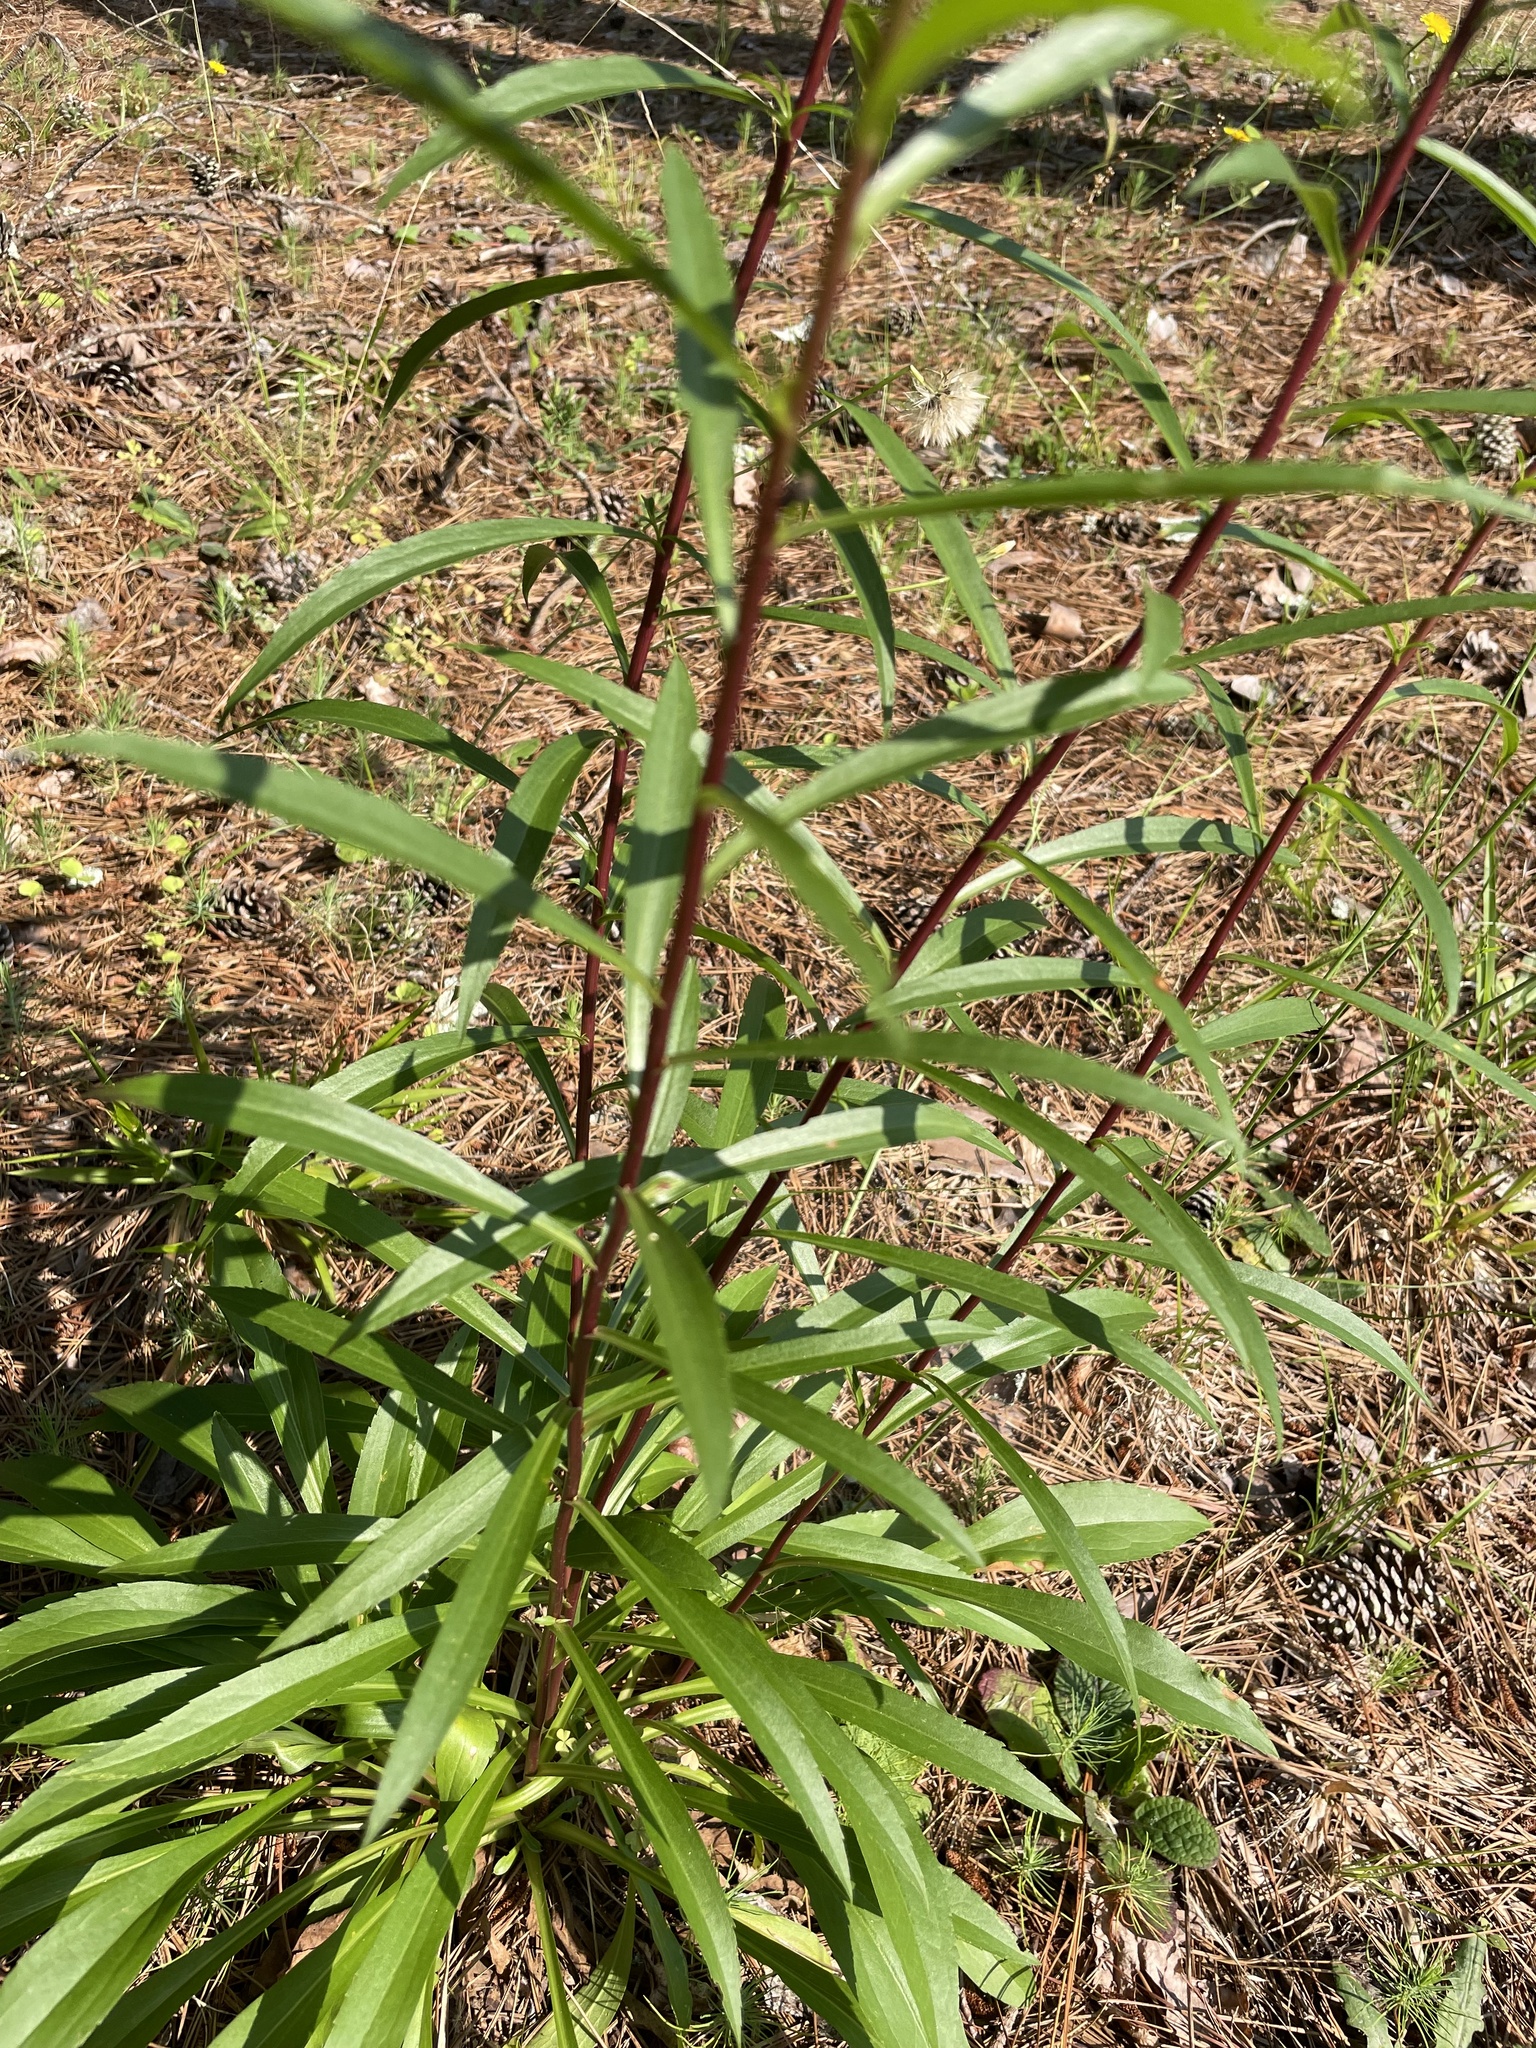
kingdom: Plantae
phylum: Tracheophyta
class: Magnoliopsida
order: Asterales
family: Asteraceae
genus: Solidago
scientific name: Solidago odora
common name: Anise-scented goldenrod
